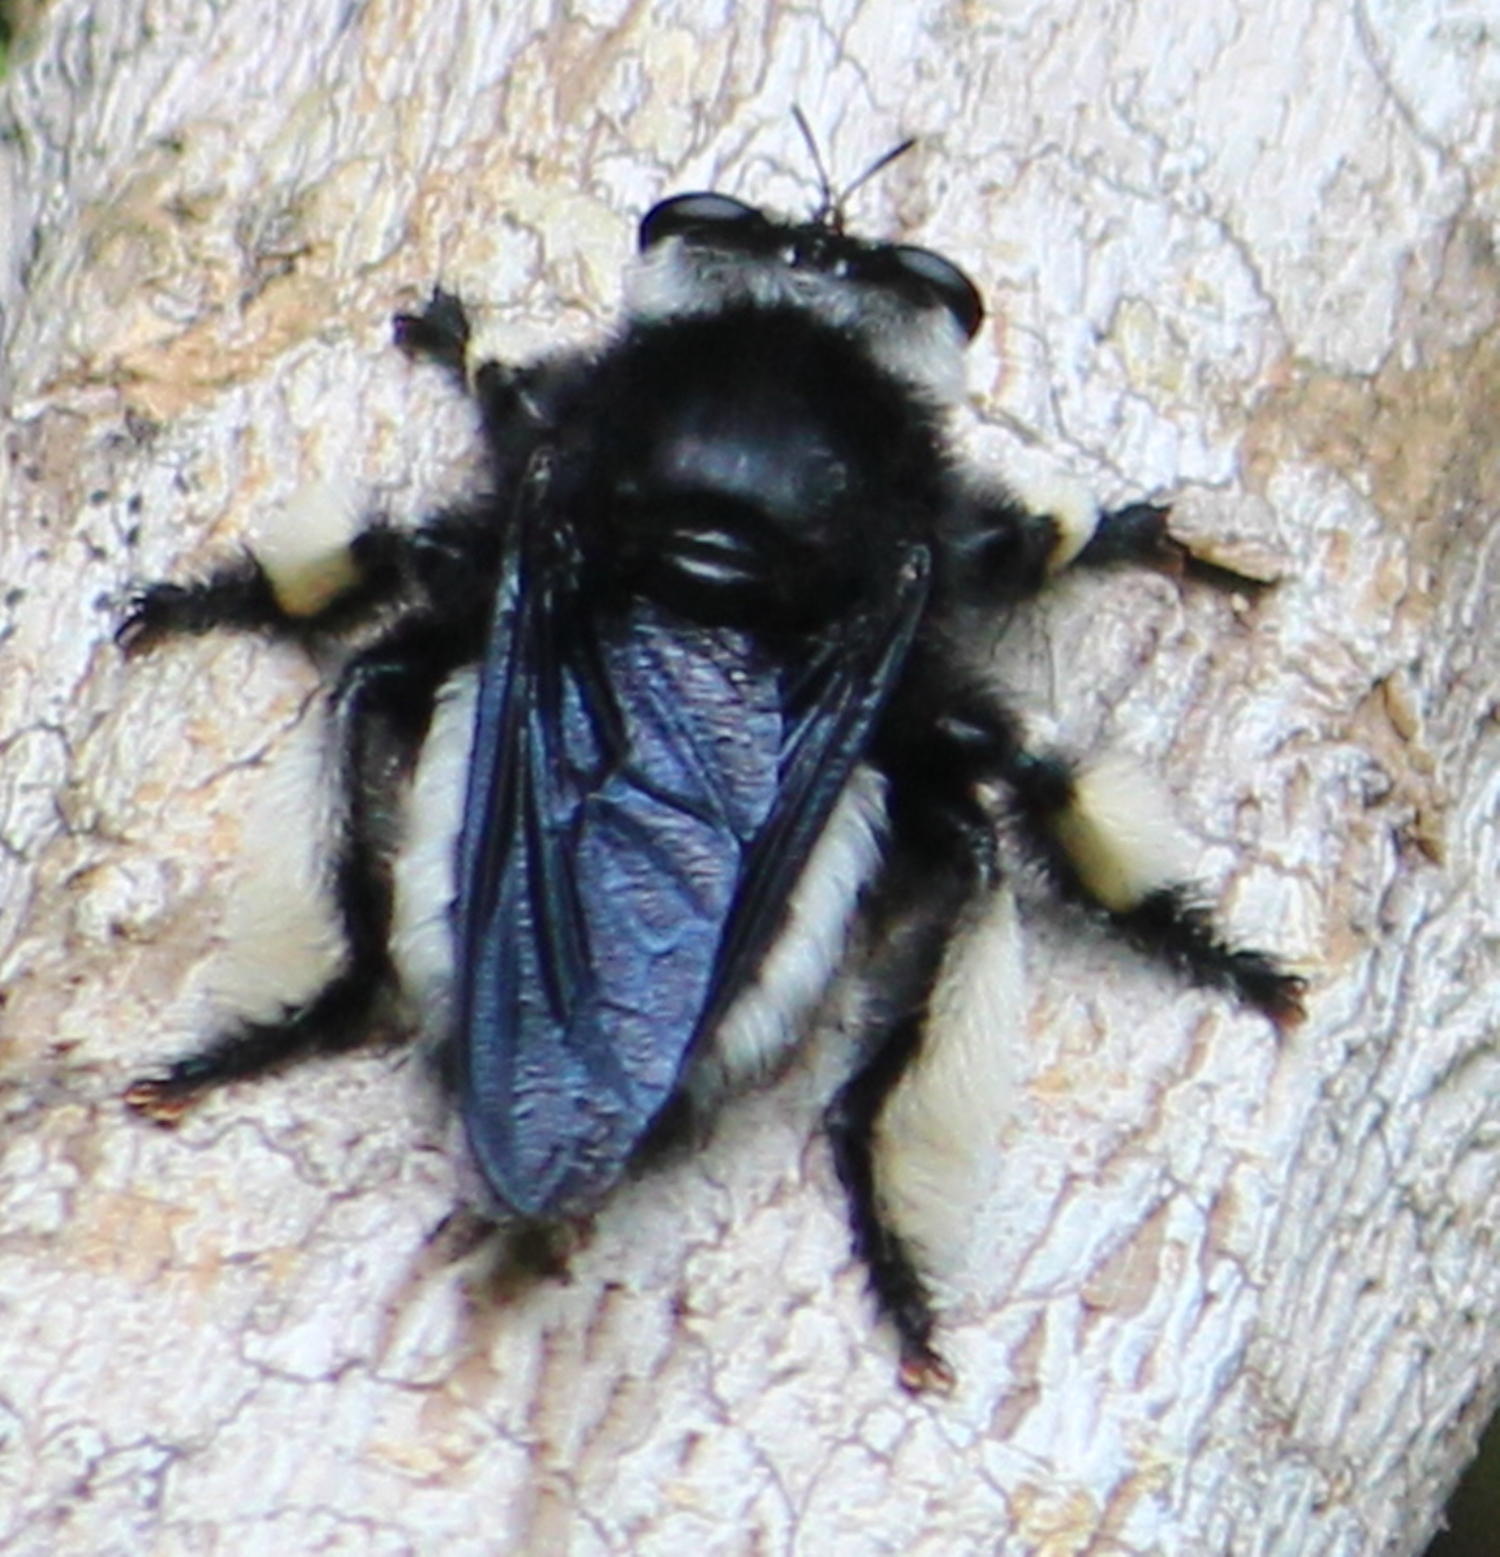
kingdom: Animalia
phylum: Arthropoda
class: Insecta
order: Diptera
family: Asilidae
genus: Hyperechia
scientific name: Hyperechia consimilis
